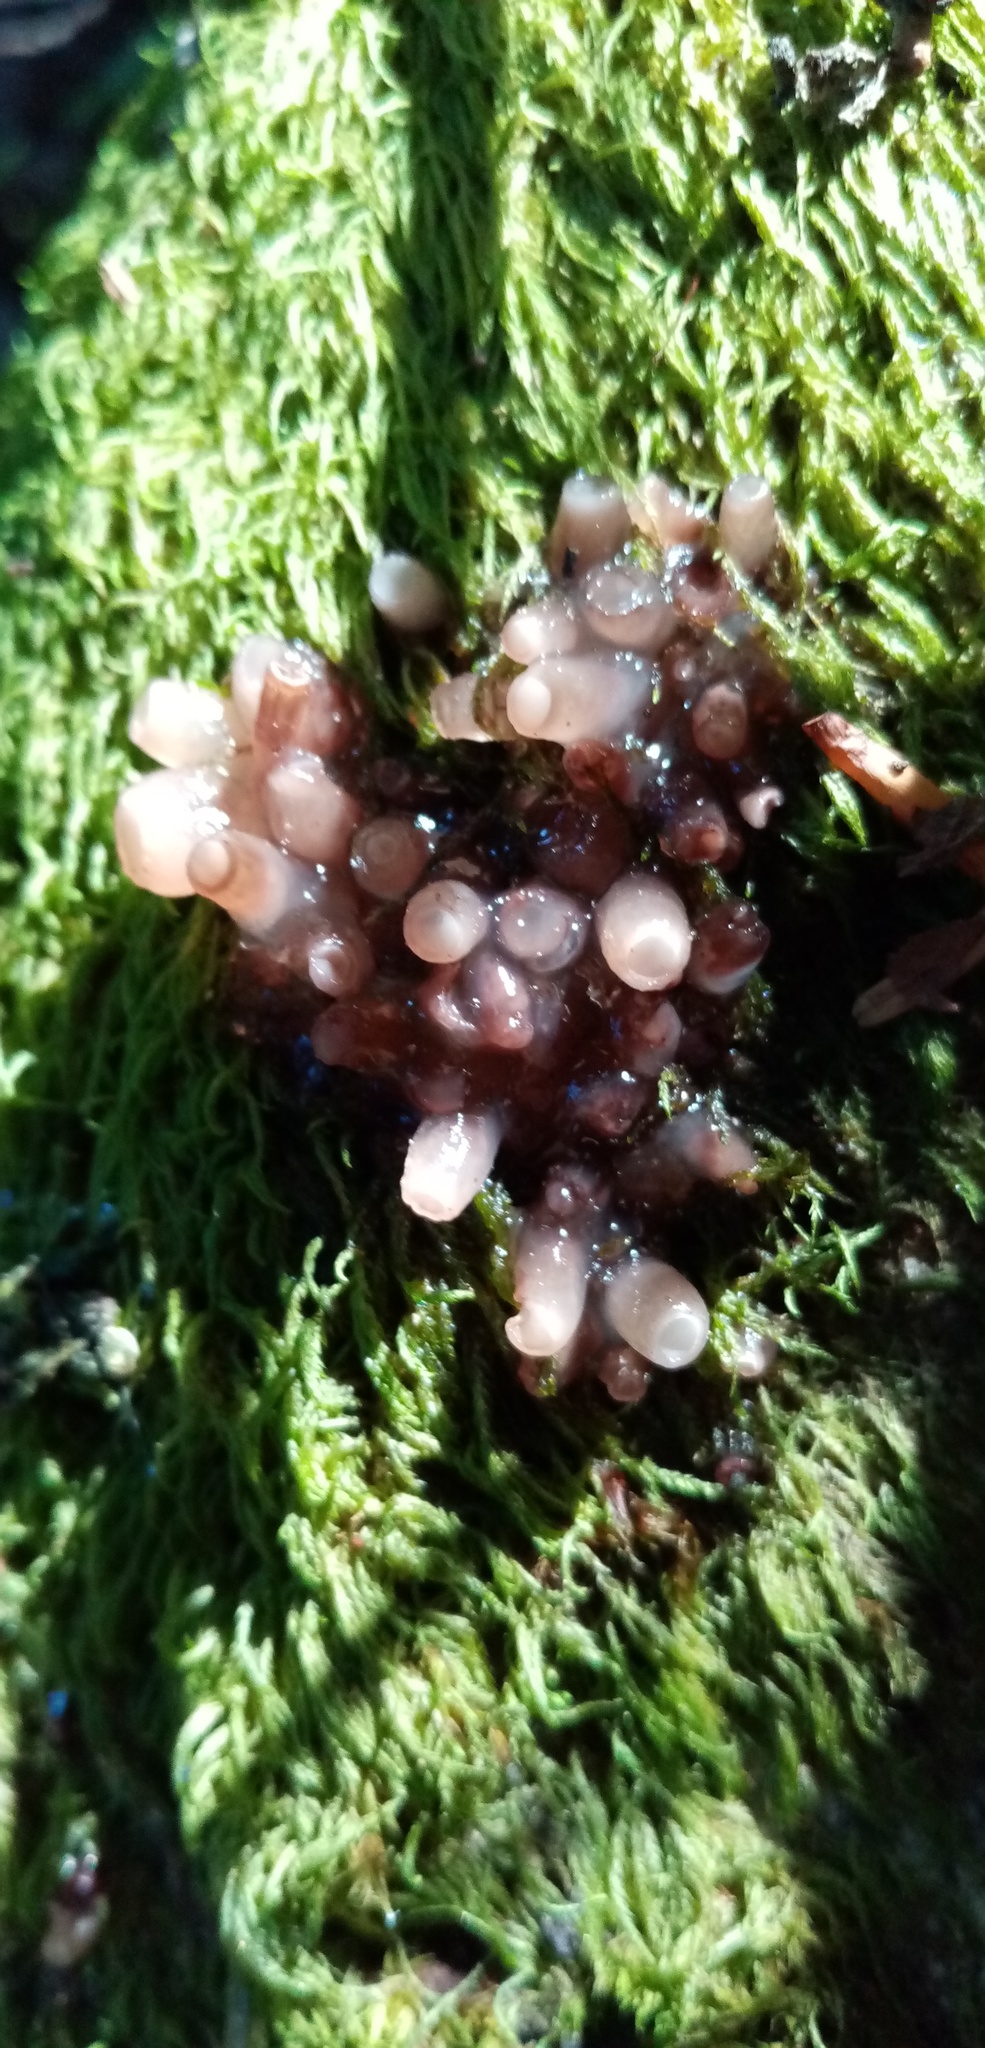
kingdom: Fungi
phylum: Ascomycota
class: Leotiomycetes
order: Helotiales
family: Gelatinodiscaceae
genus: Neobulgaria
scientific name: Neobulgaria pura
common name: Beech jelly-disc
